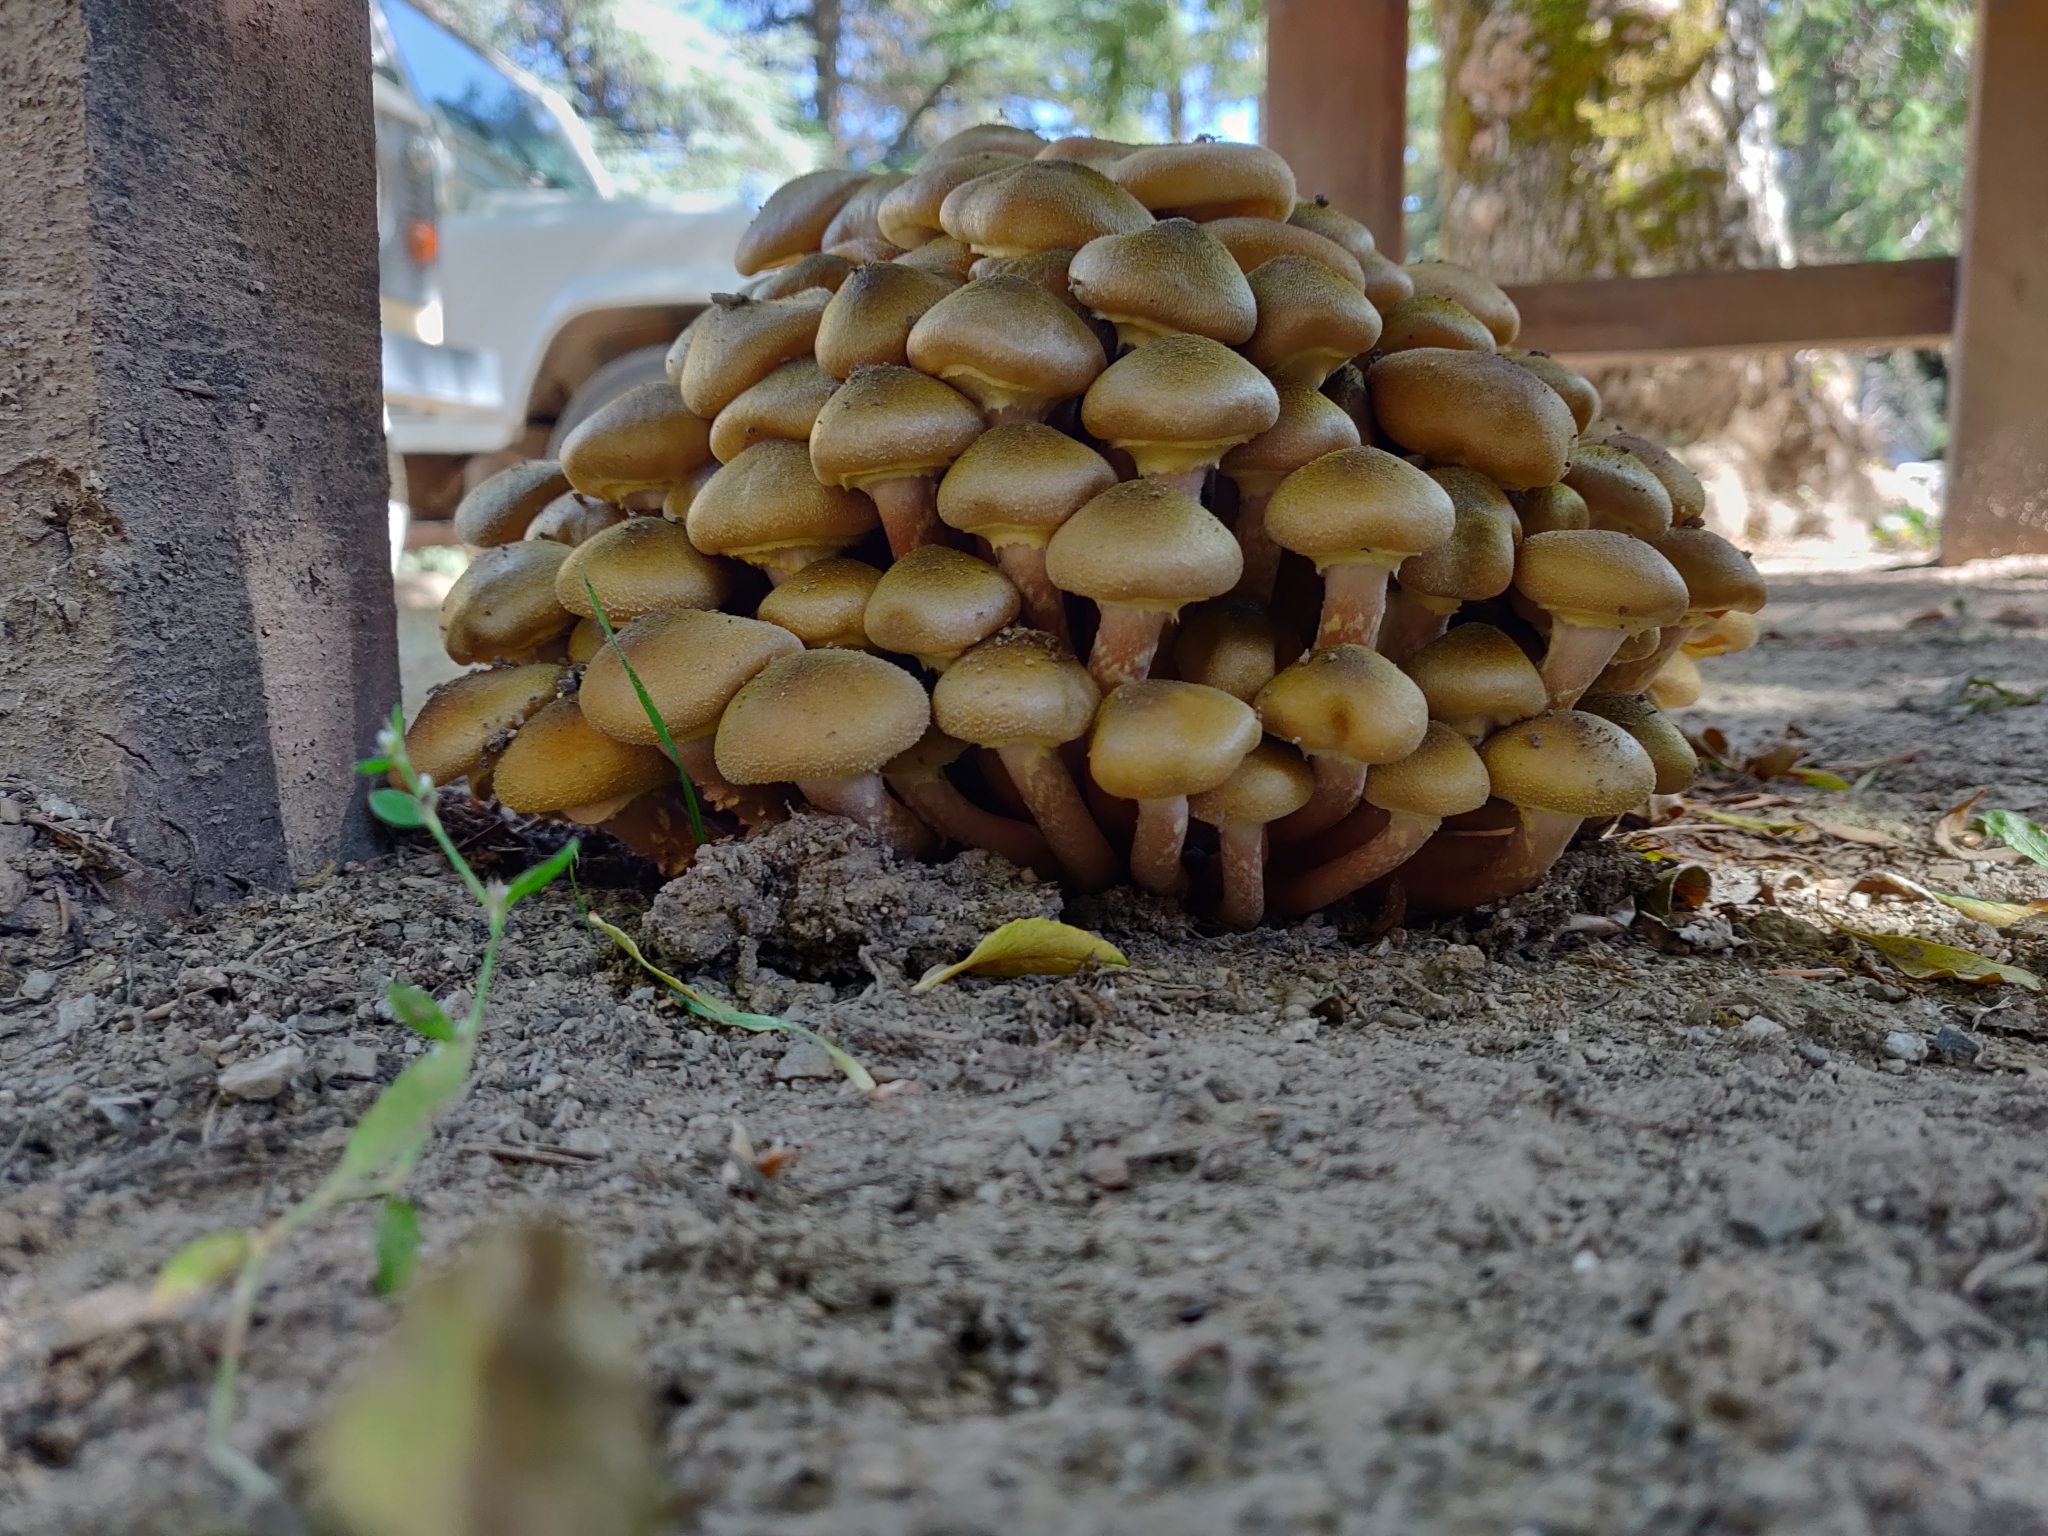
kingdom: Fungi
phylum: Basidiomycota
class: Agaricomycetes
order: Agaricales
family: Physalacriaceae
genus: Armillaria
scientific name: Armillaria mellea
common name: Honey fungus
